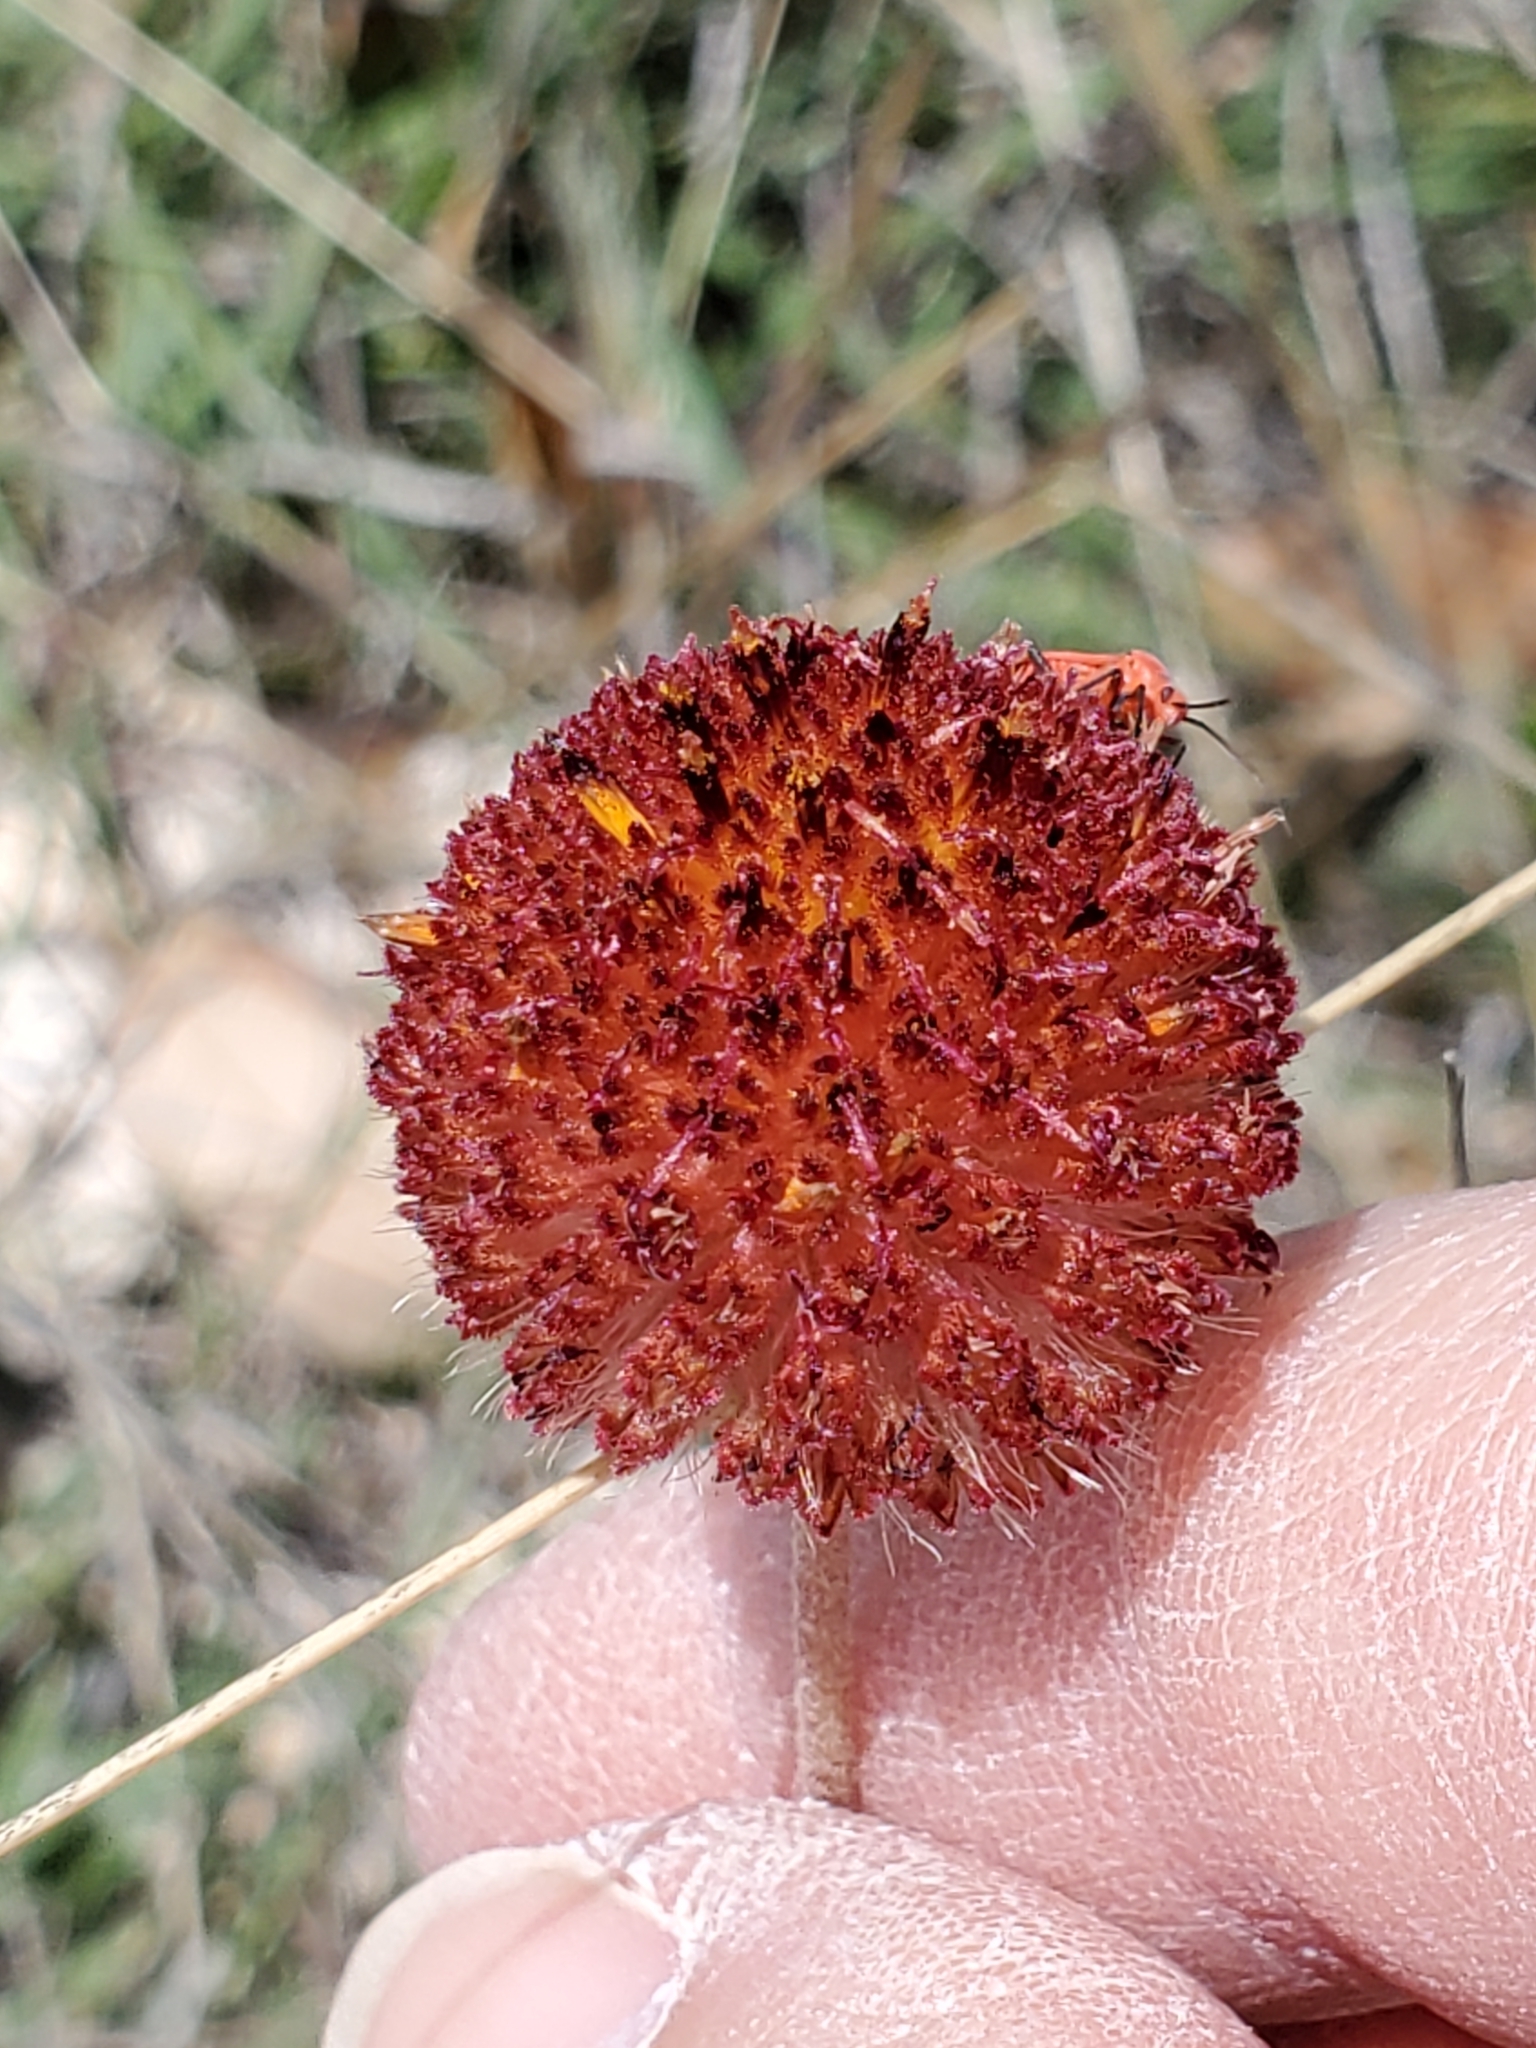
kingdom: Plantae
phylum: Tracheophyta
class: Magnoliopsida
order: Asterales
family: Asteraceae
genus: Gaillardia
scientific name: Gaillardia suavis
